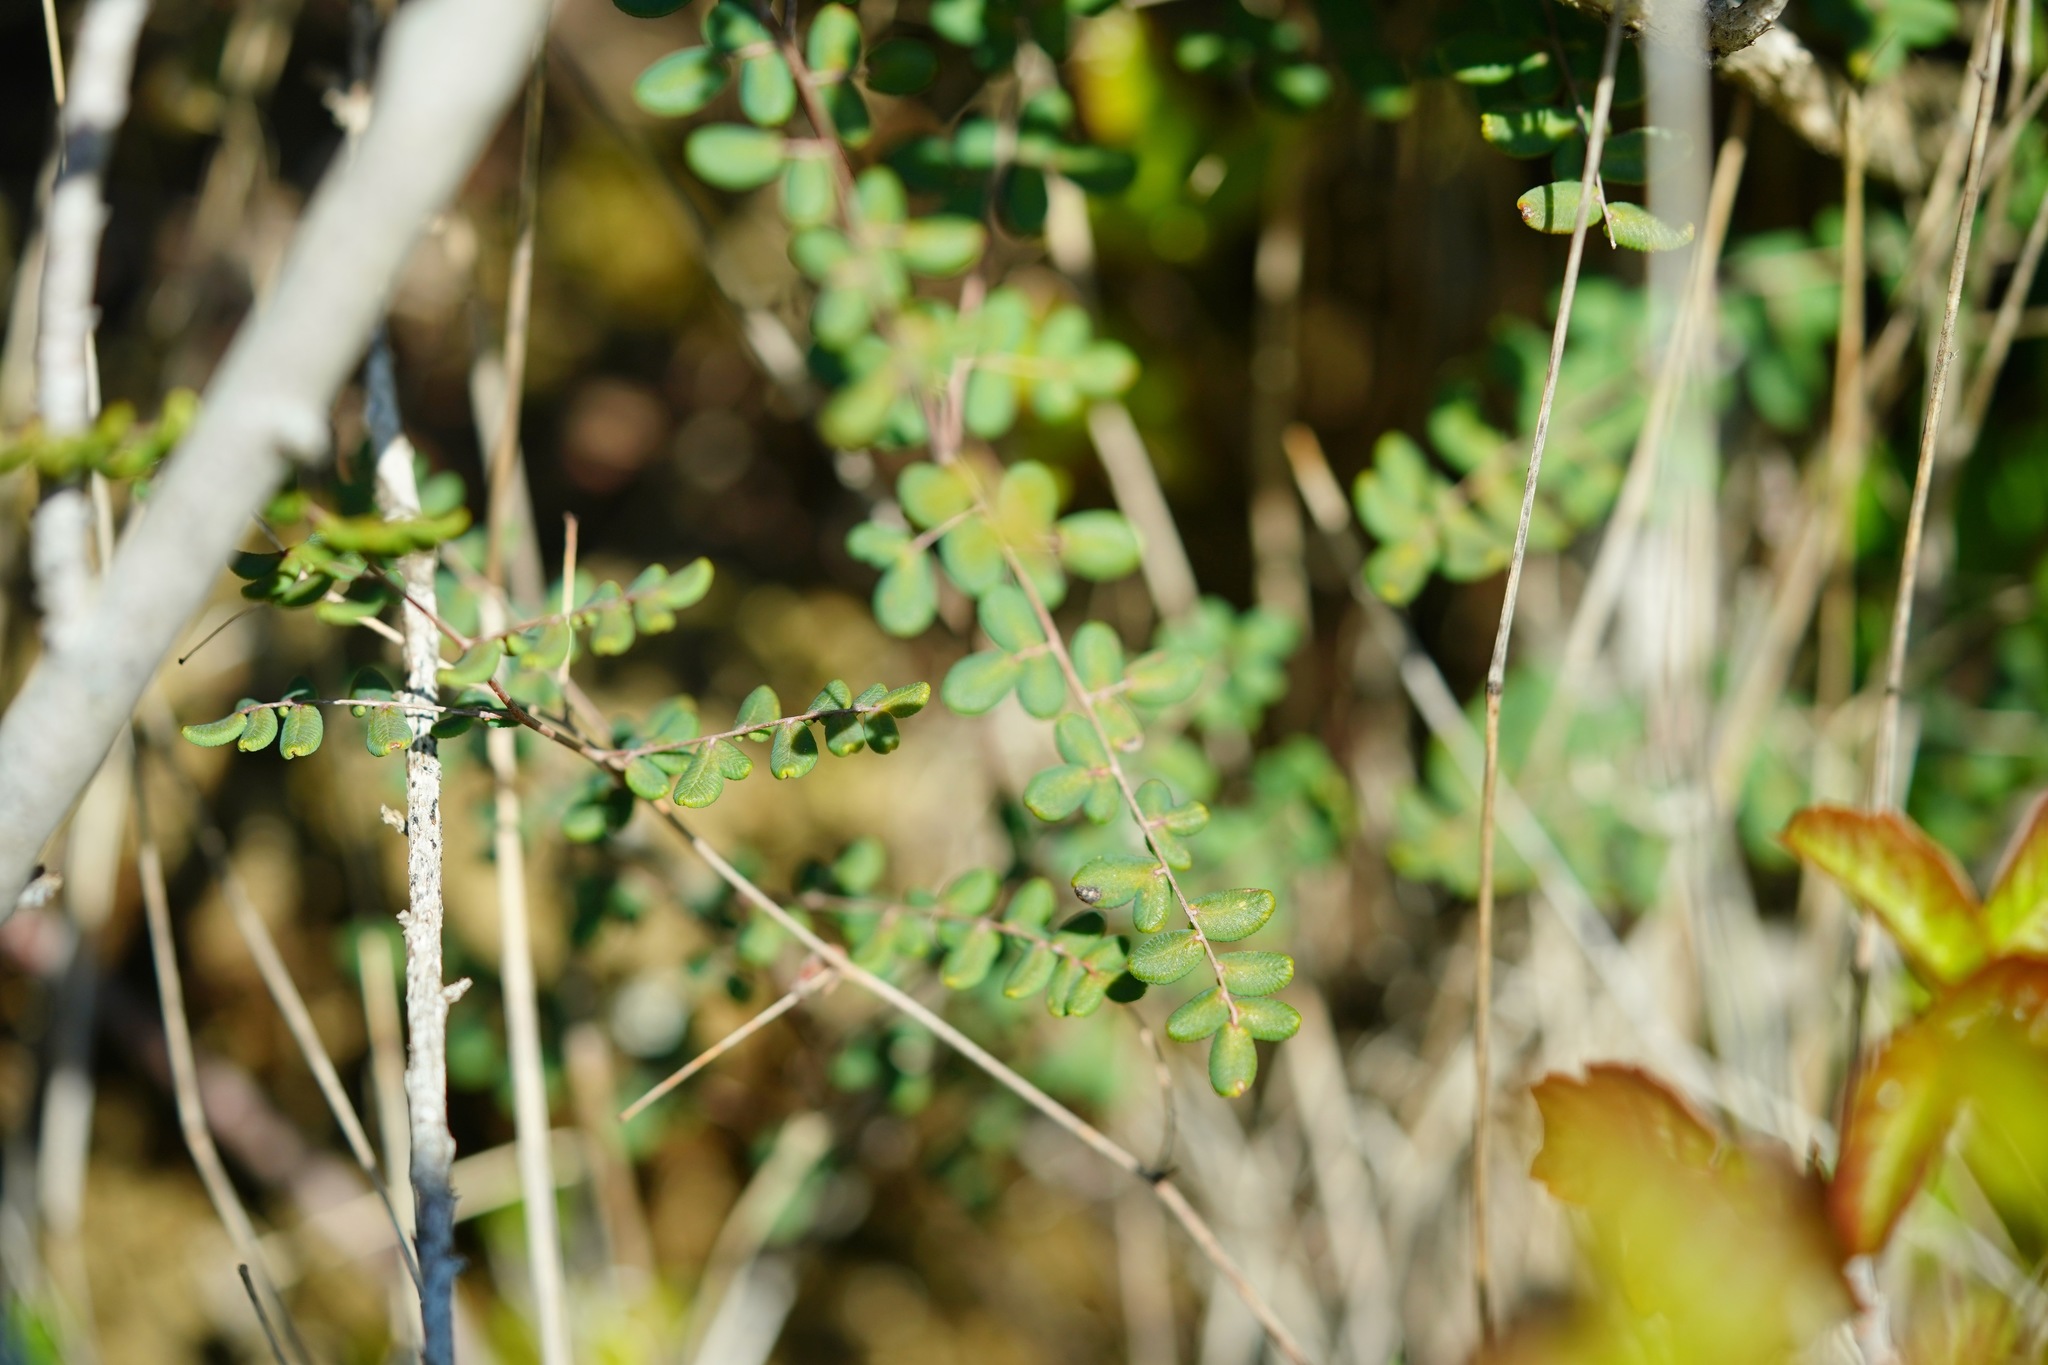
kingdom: Plantae
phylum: Tracheophyta
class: Polypodiopsida
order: Polypodiales
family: Pteridaceae
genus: Pellaea
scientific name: Pellaea andromedifolia
